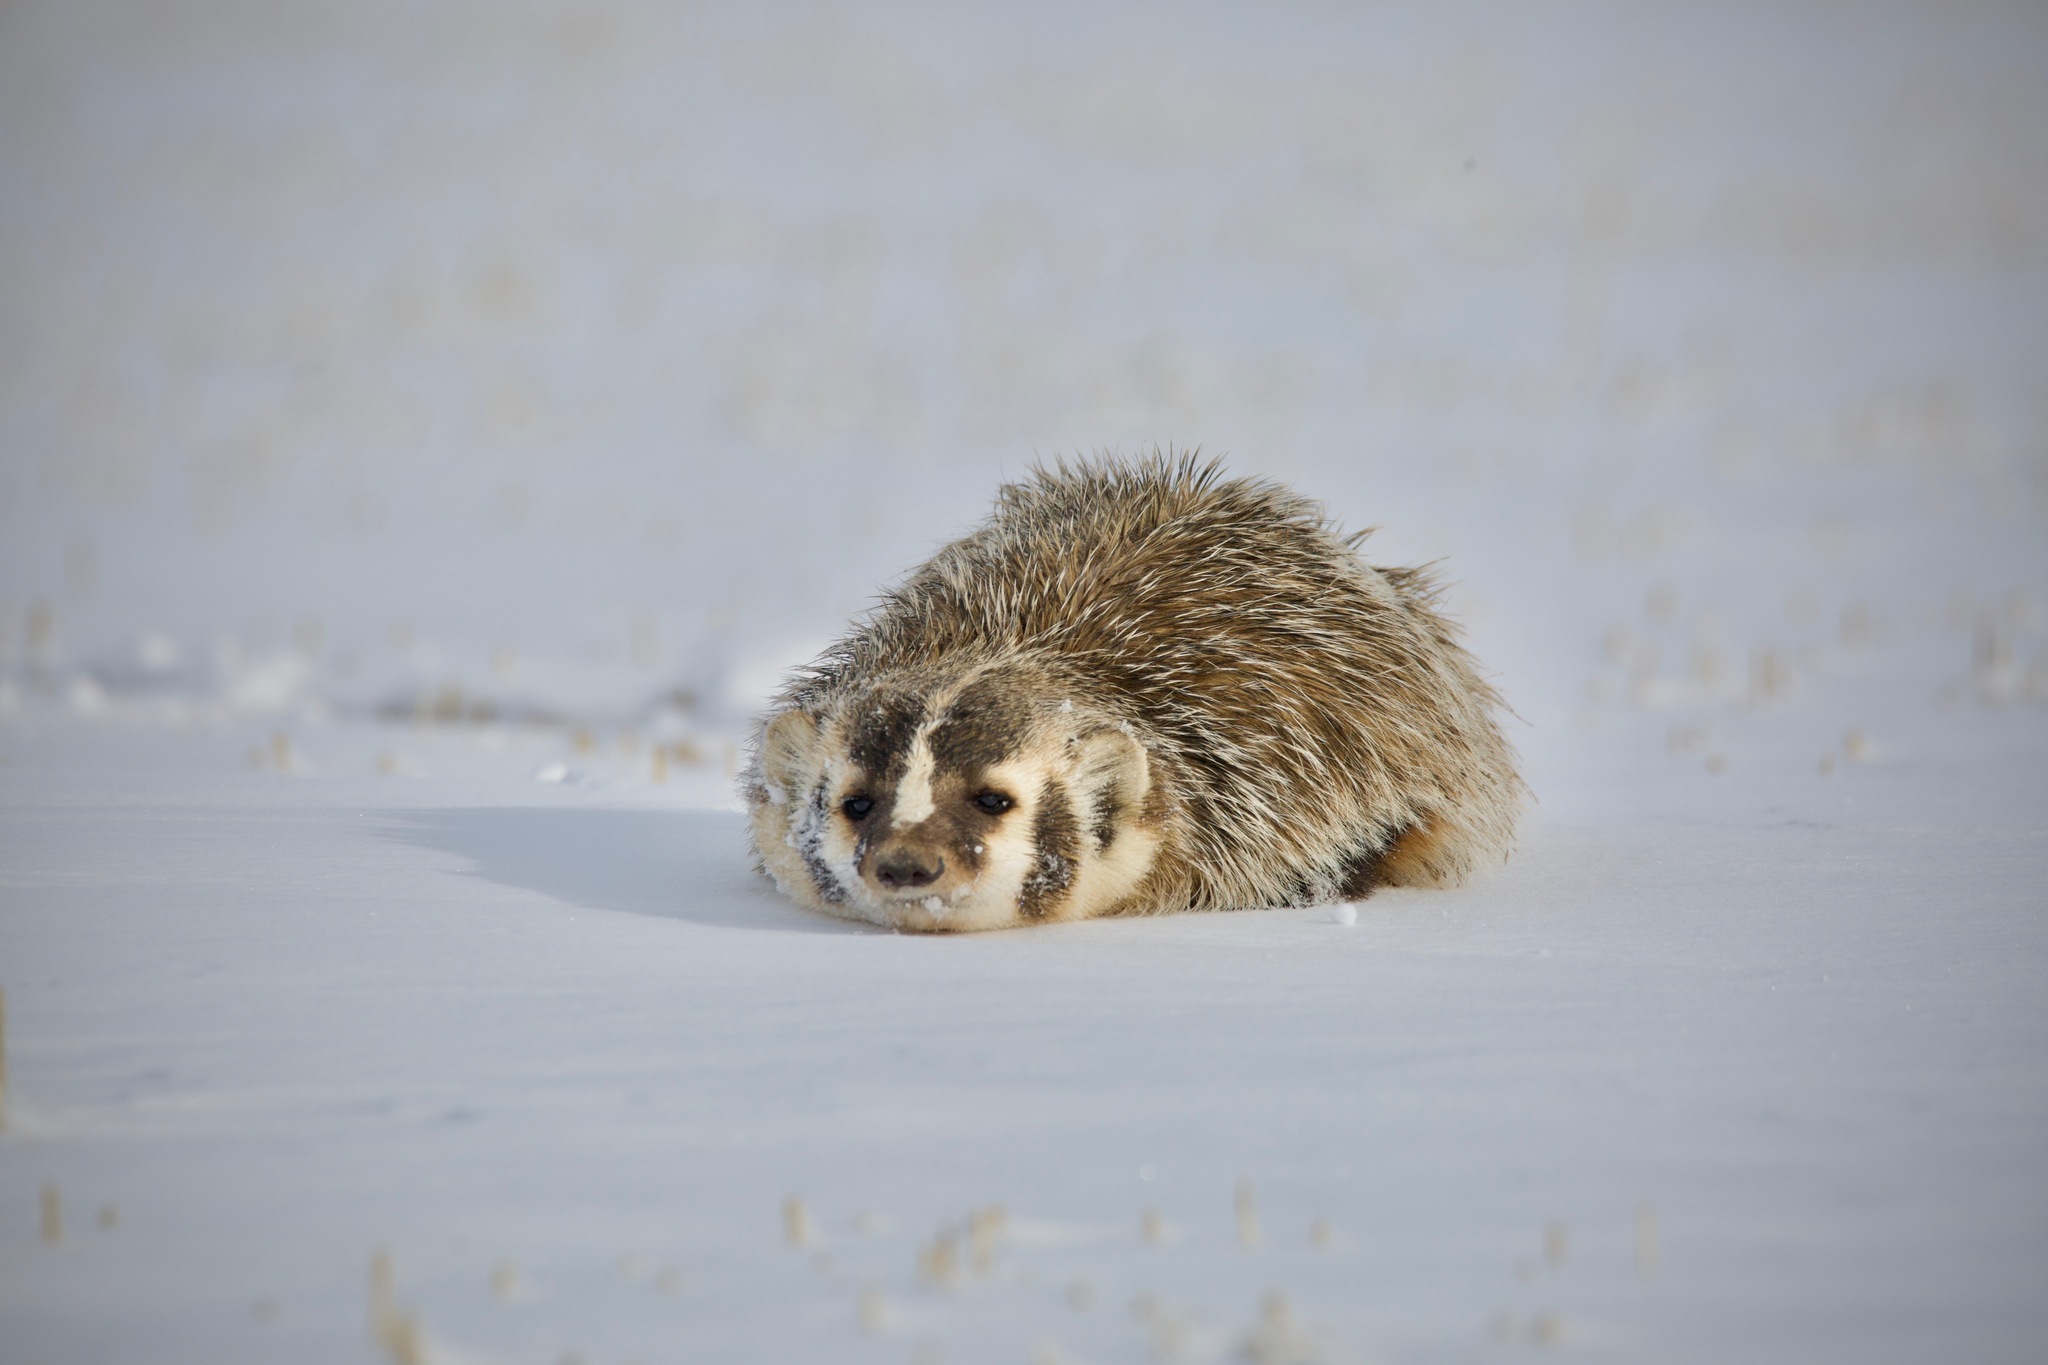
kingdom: Animalia
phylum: Chordata
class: Mammalia
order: Carnivora
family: Mustelidae
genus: Taxidea
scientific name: Taxidea taxus
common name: American badger
